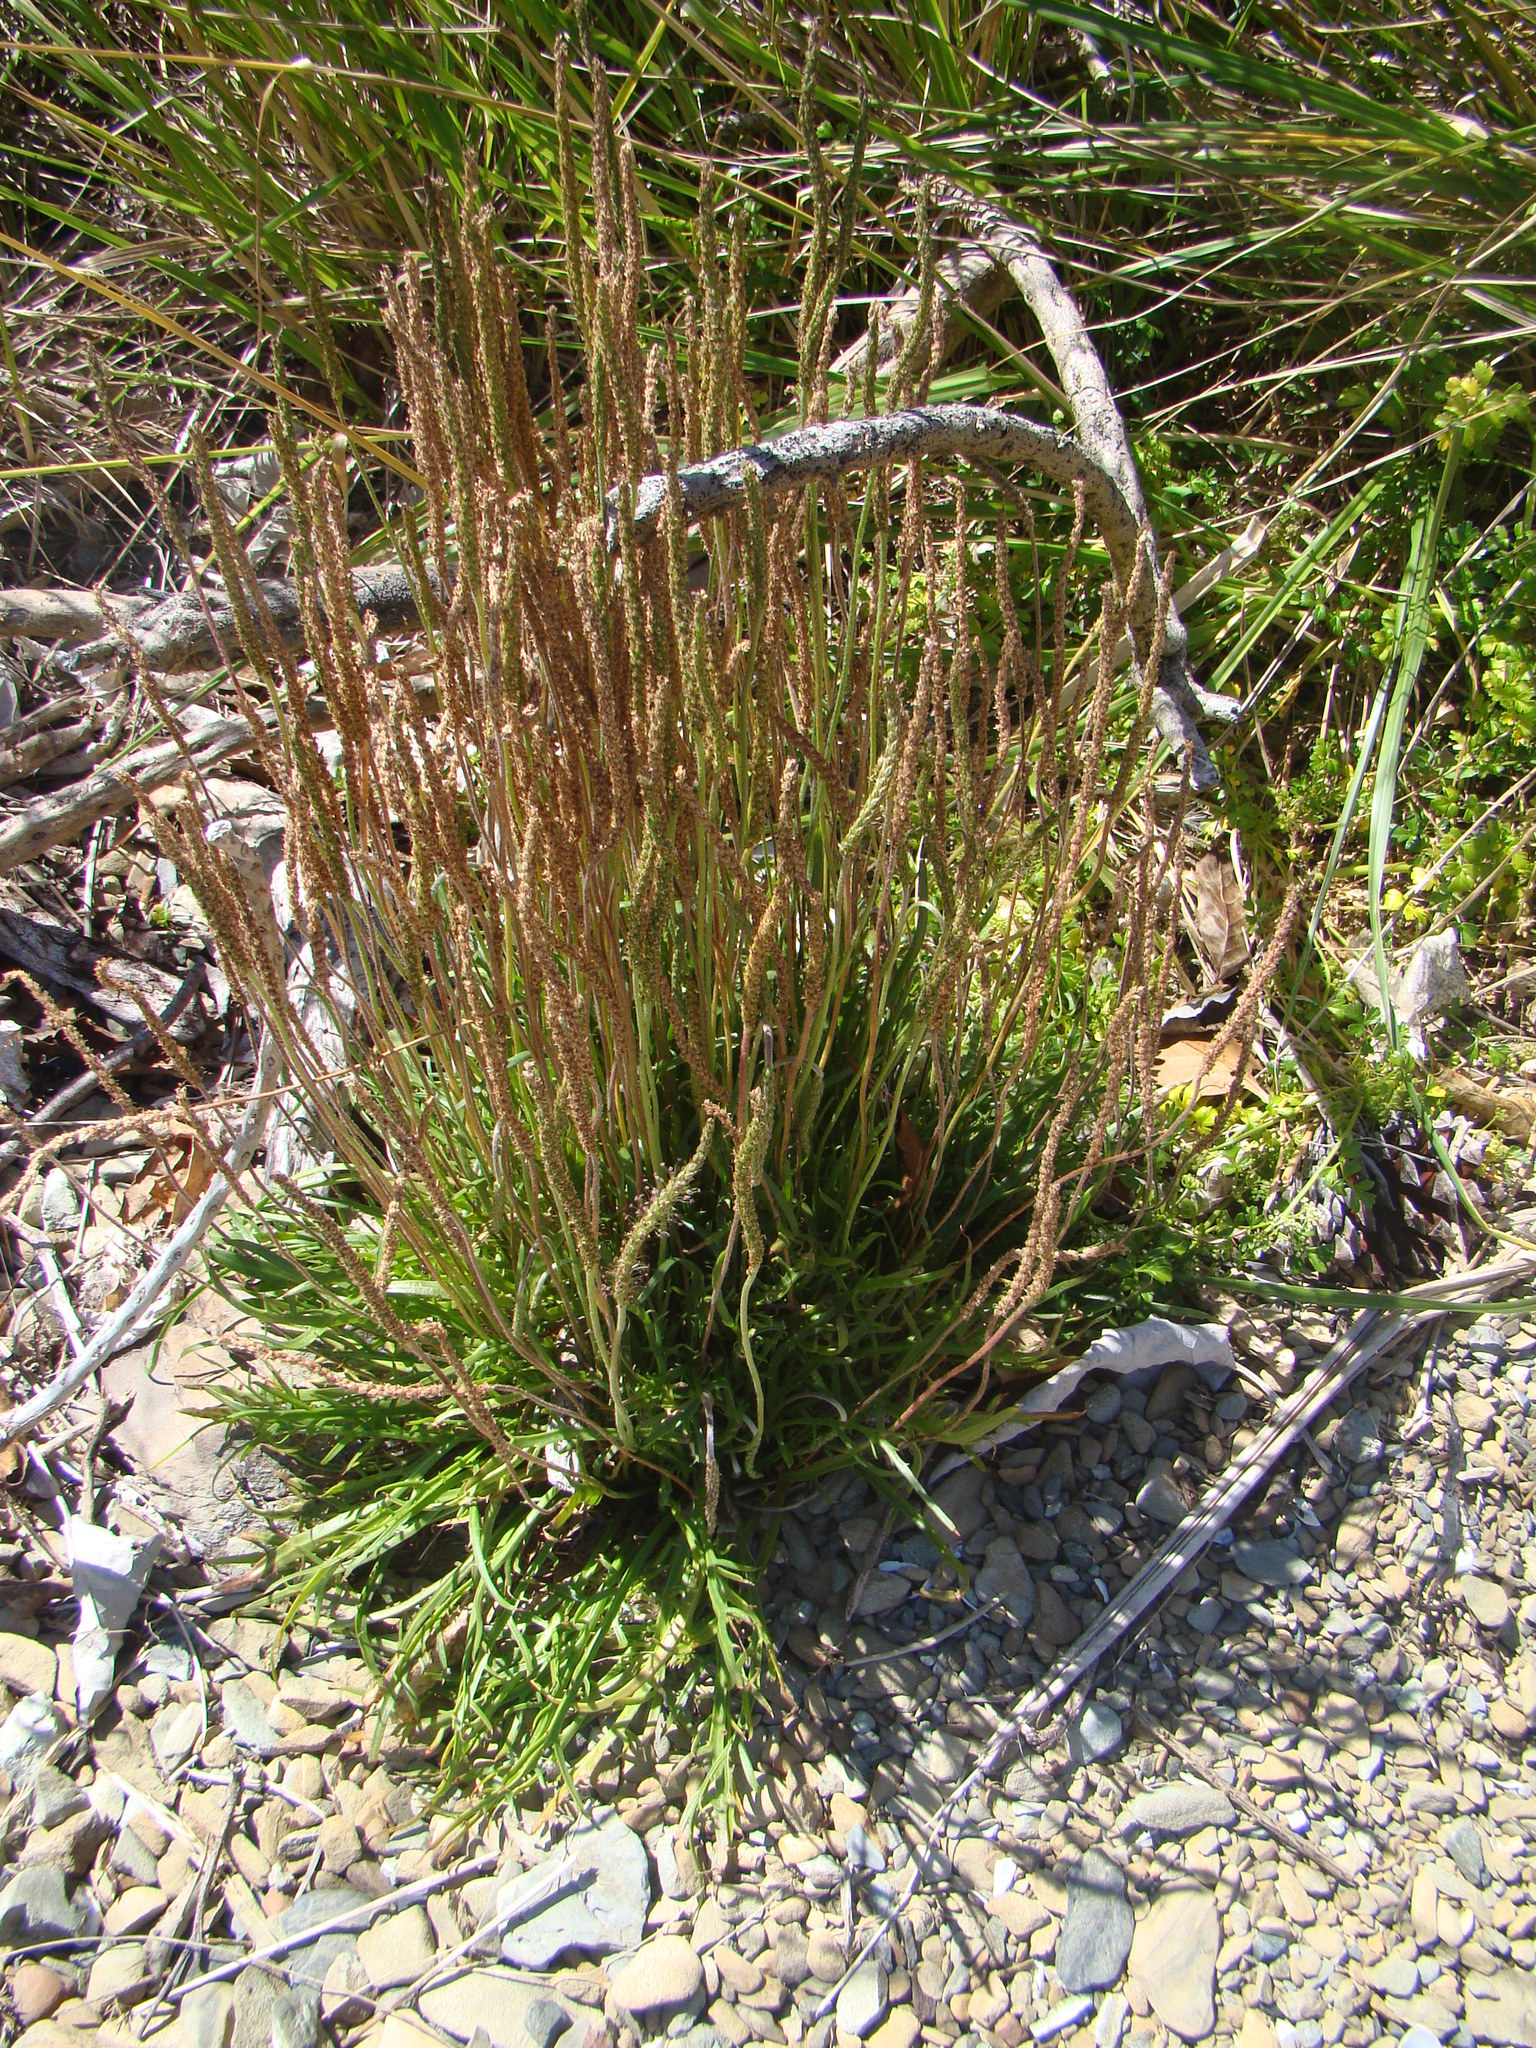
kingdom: Plantae
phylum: Tracheophyta
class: Magnoliopsida
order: Lamiales
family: Plantaginaceae
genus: Plantago
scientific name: Plantago coronopus
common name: Buck's-horn plantain
